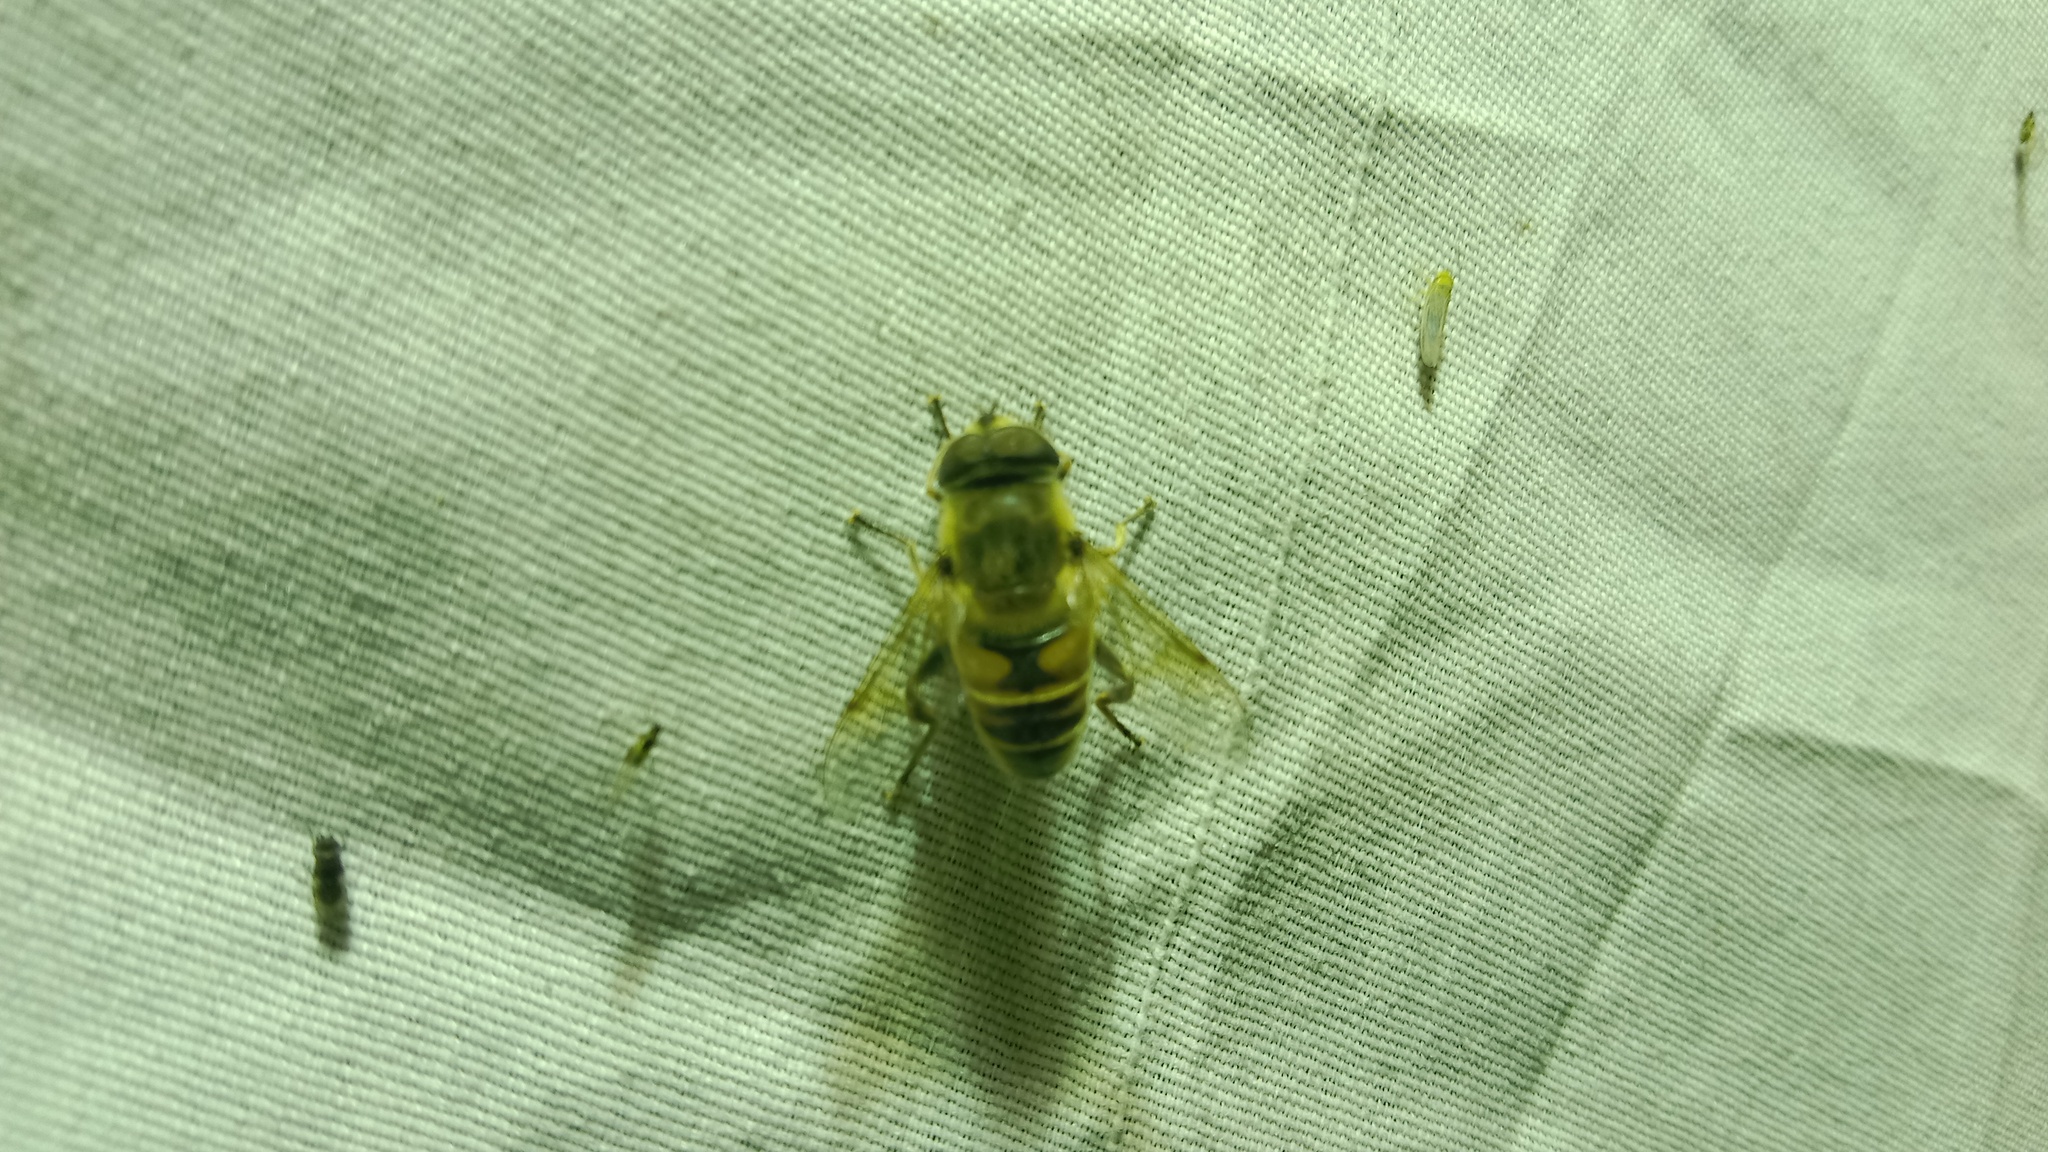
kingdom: Animalia
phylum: Arthropoda
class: Insecta
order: Diptera
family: Syrphidae
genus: Eristalis
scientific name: Eristalis tenax
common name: Drone fly
